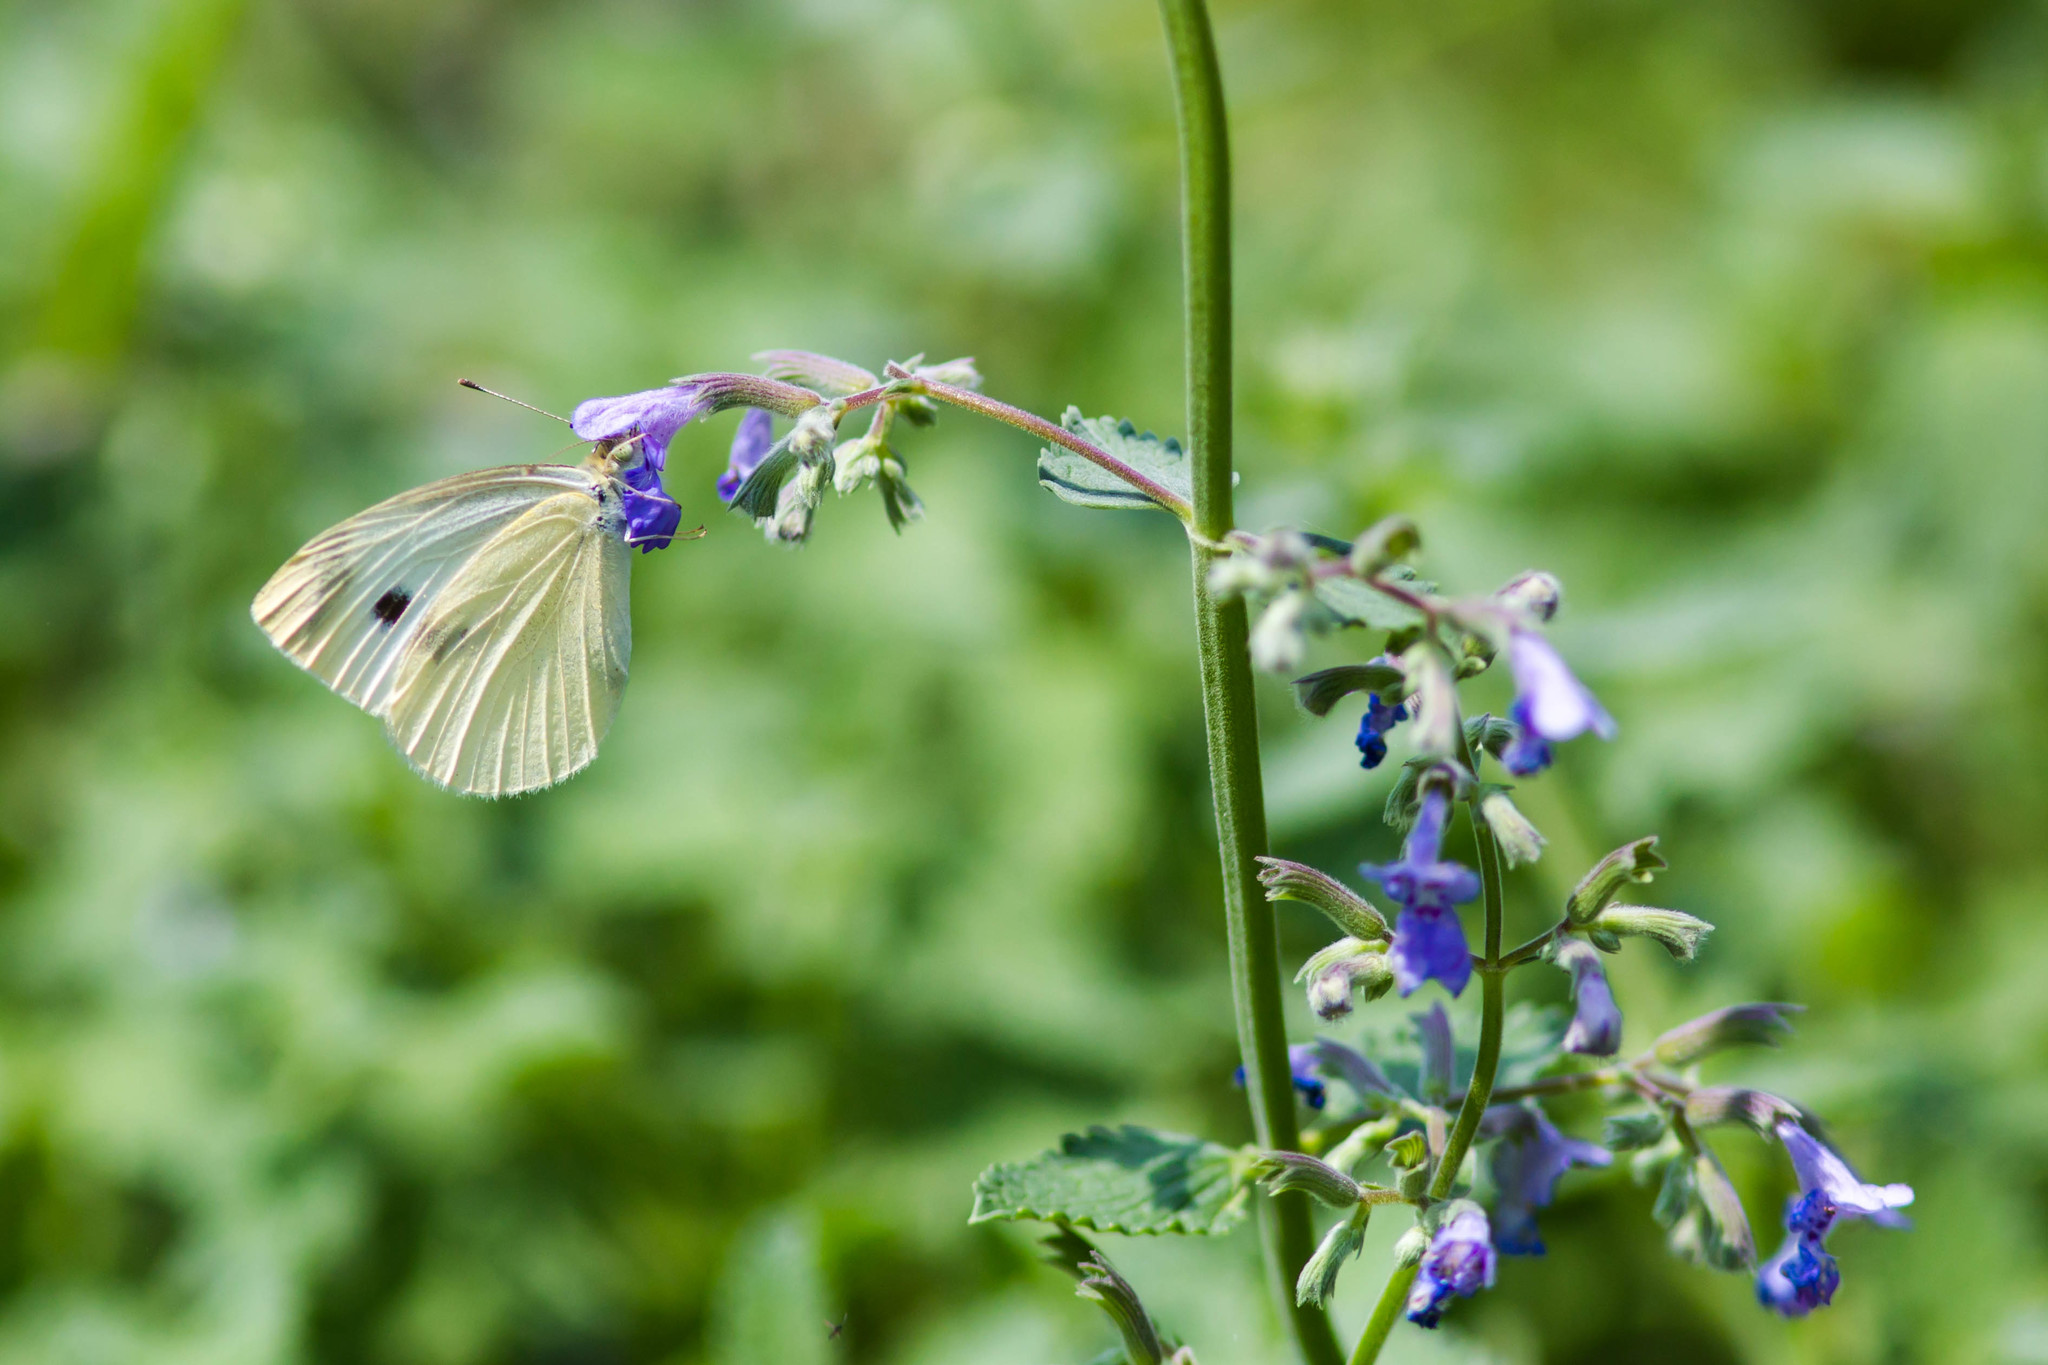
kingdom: Animalia
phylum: Arthropoda
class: Insecta
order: Lepidoptera
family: Pieridae
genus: Pieris
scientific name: Pieris rapae
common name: Small white
